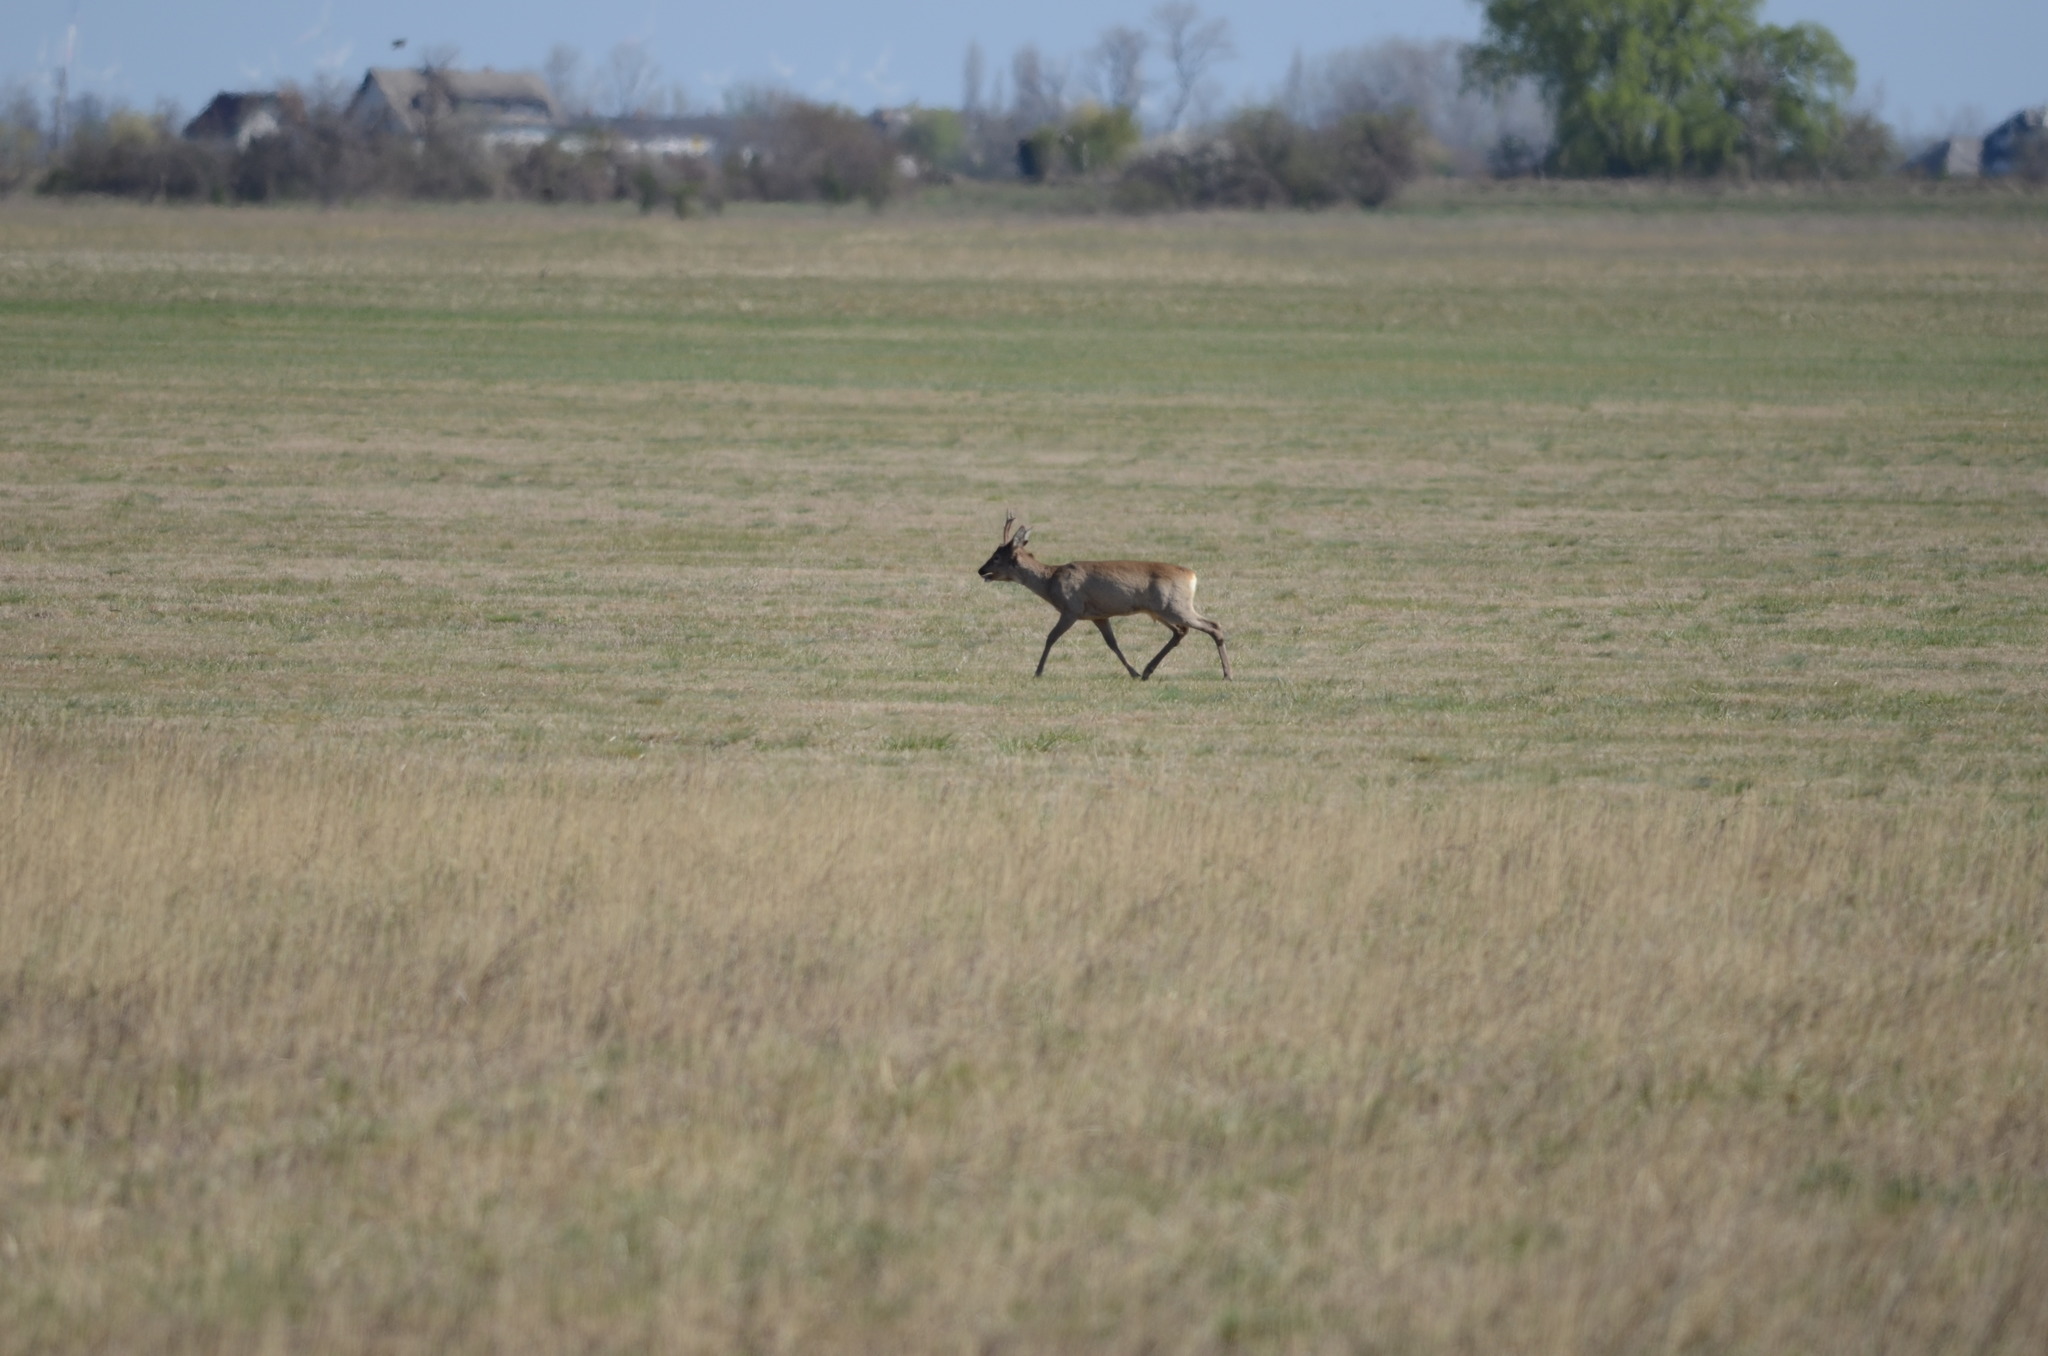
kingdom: Animalia
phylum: Chordata
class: Mammalia
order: Artiodactyla
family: Cervidae
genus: Capreolus
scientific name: Capreolus capreolus
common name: Western roe deer
